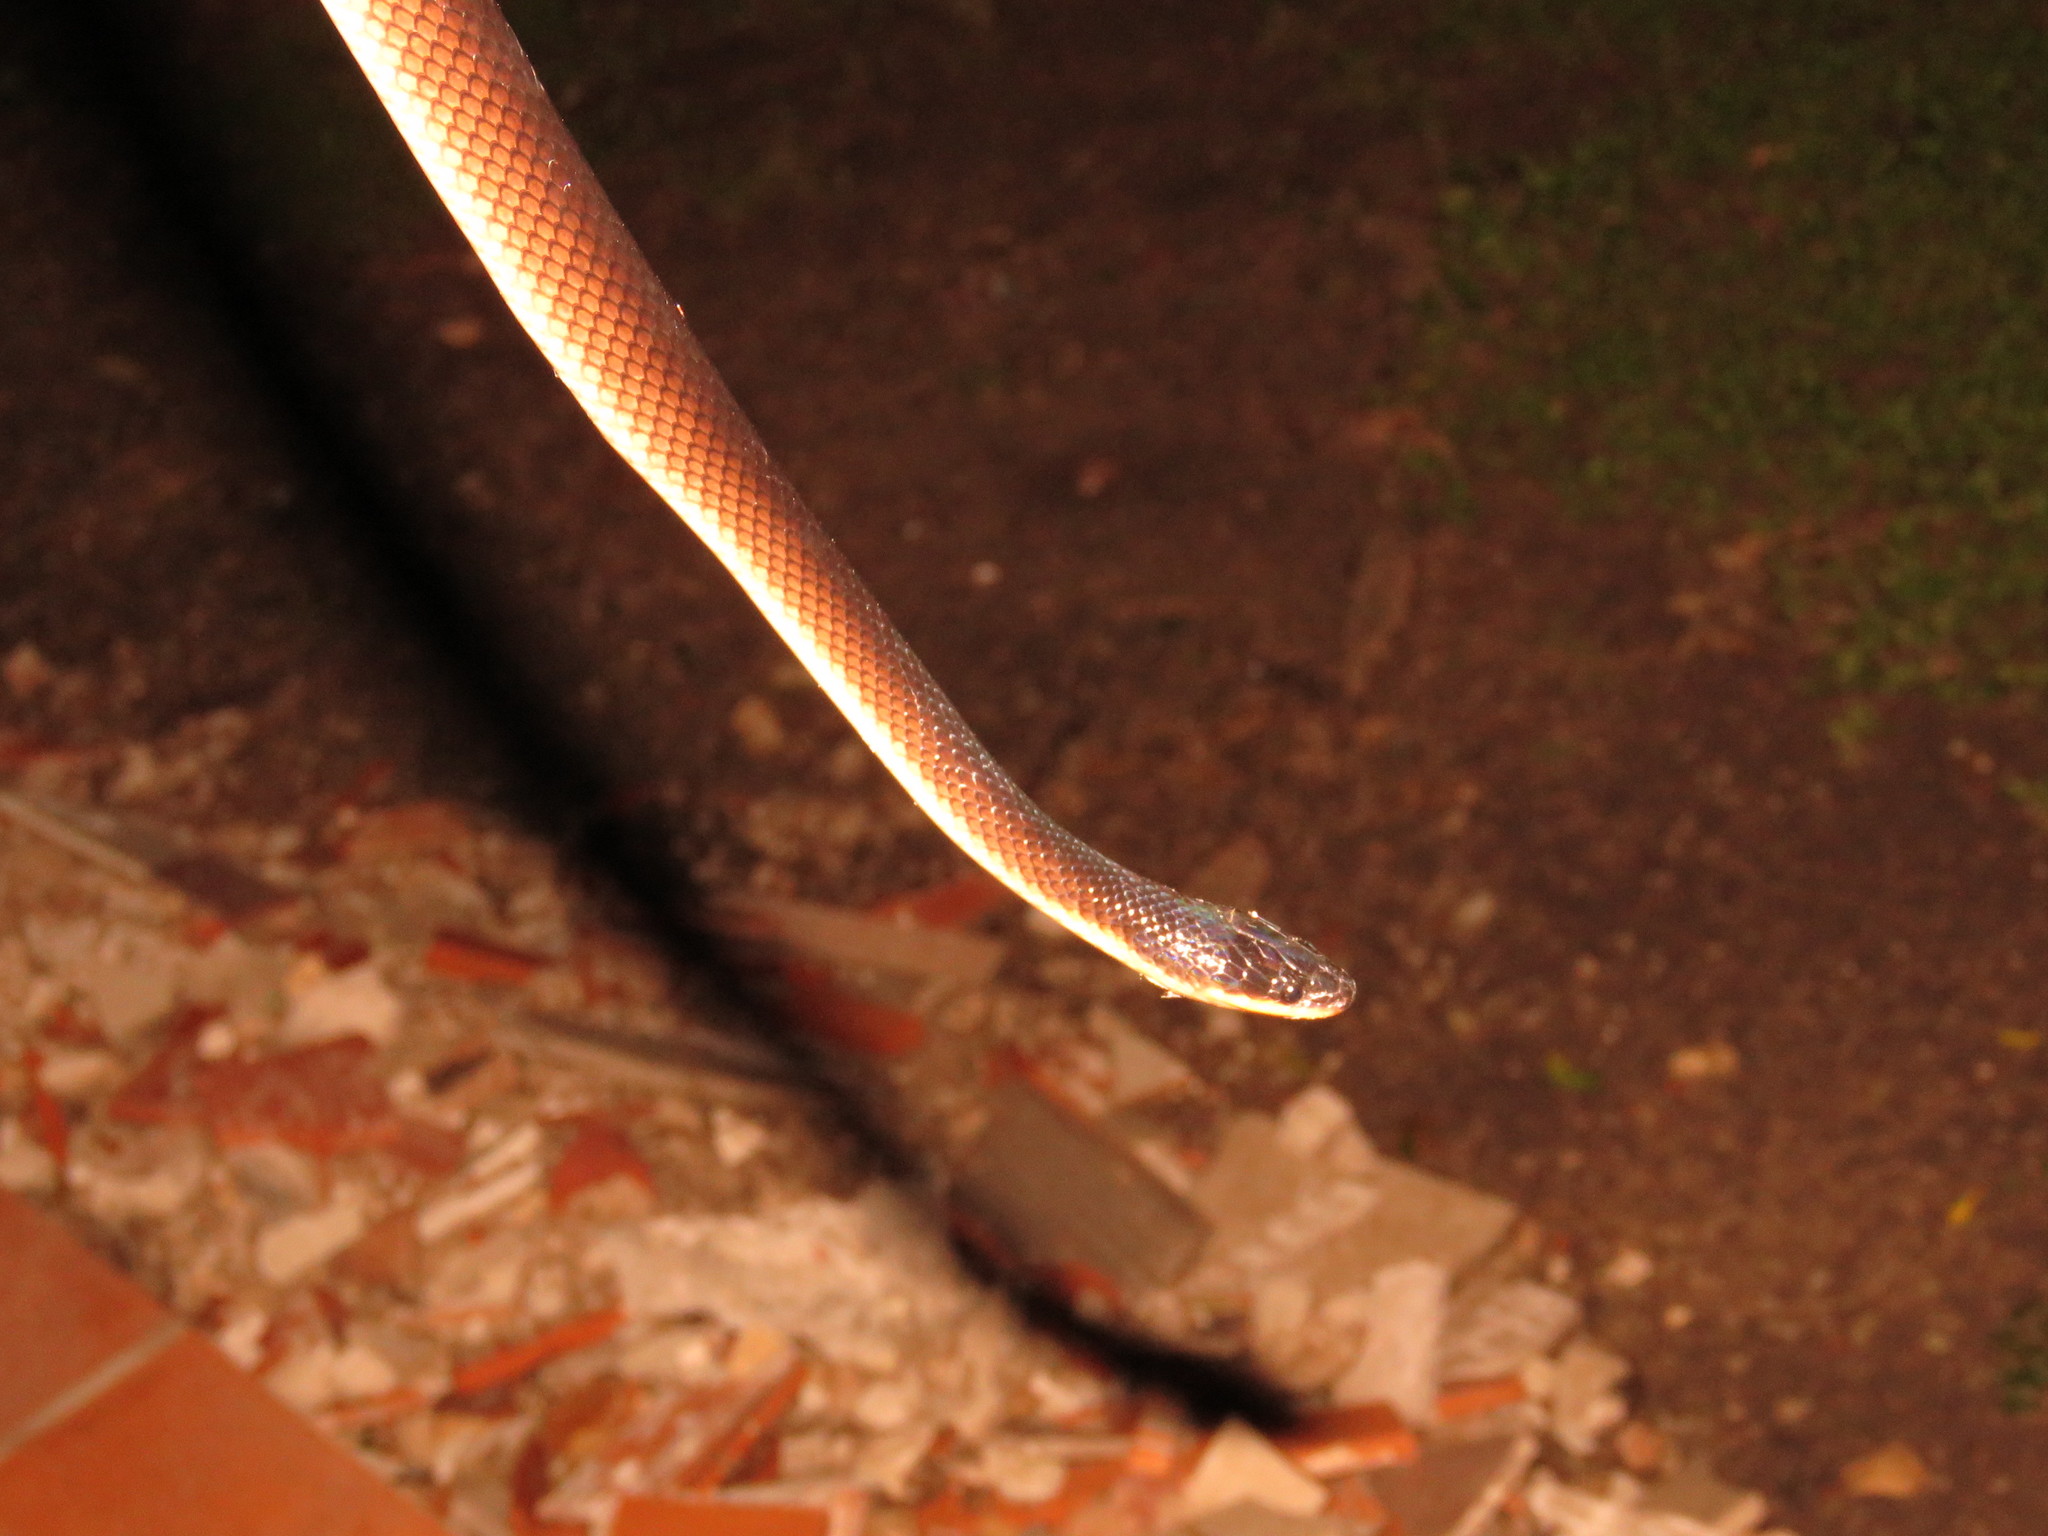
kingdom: Animalia
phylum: Chordata
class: Squamata
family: Colubridae
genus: Mussurana
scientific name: Mussurana bicolor
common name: Two-colored mussurana
